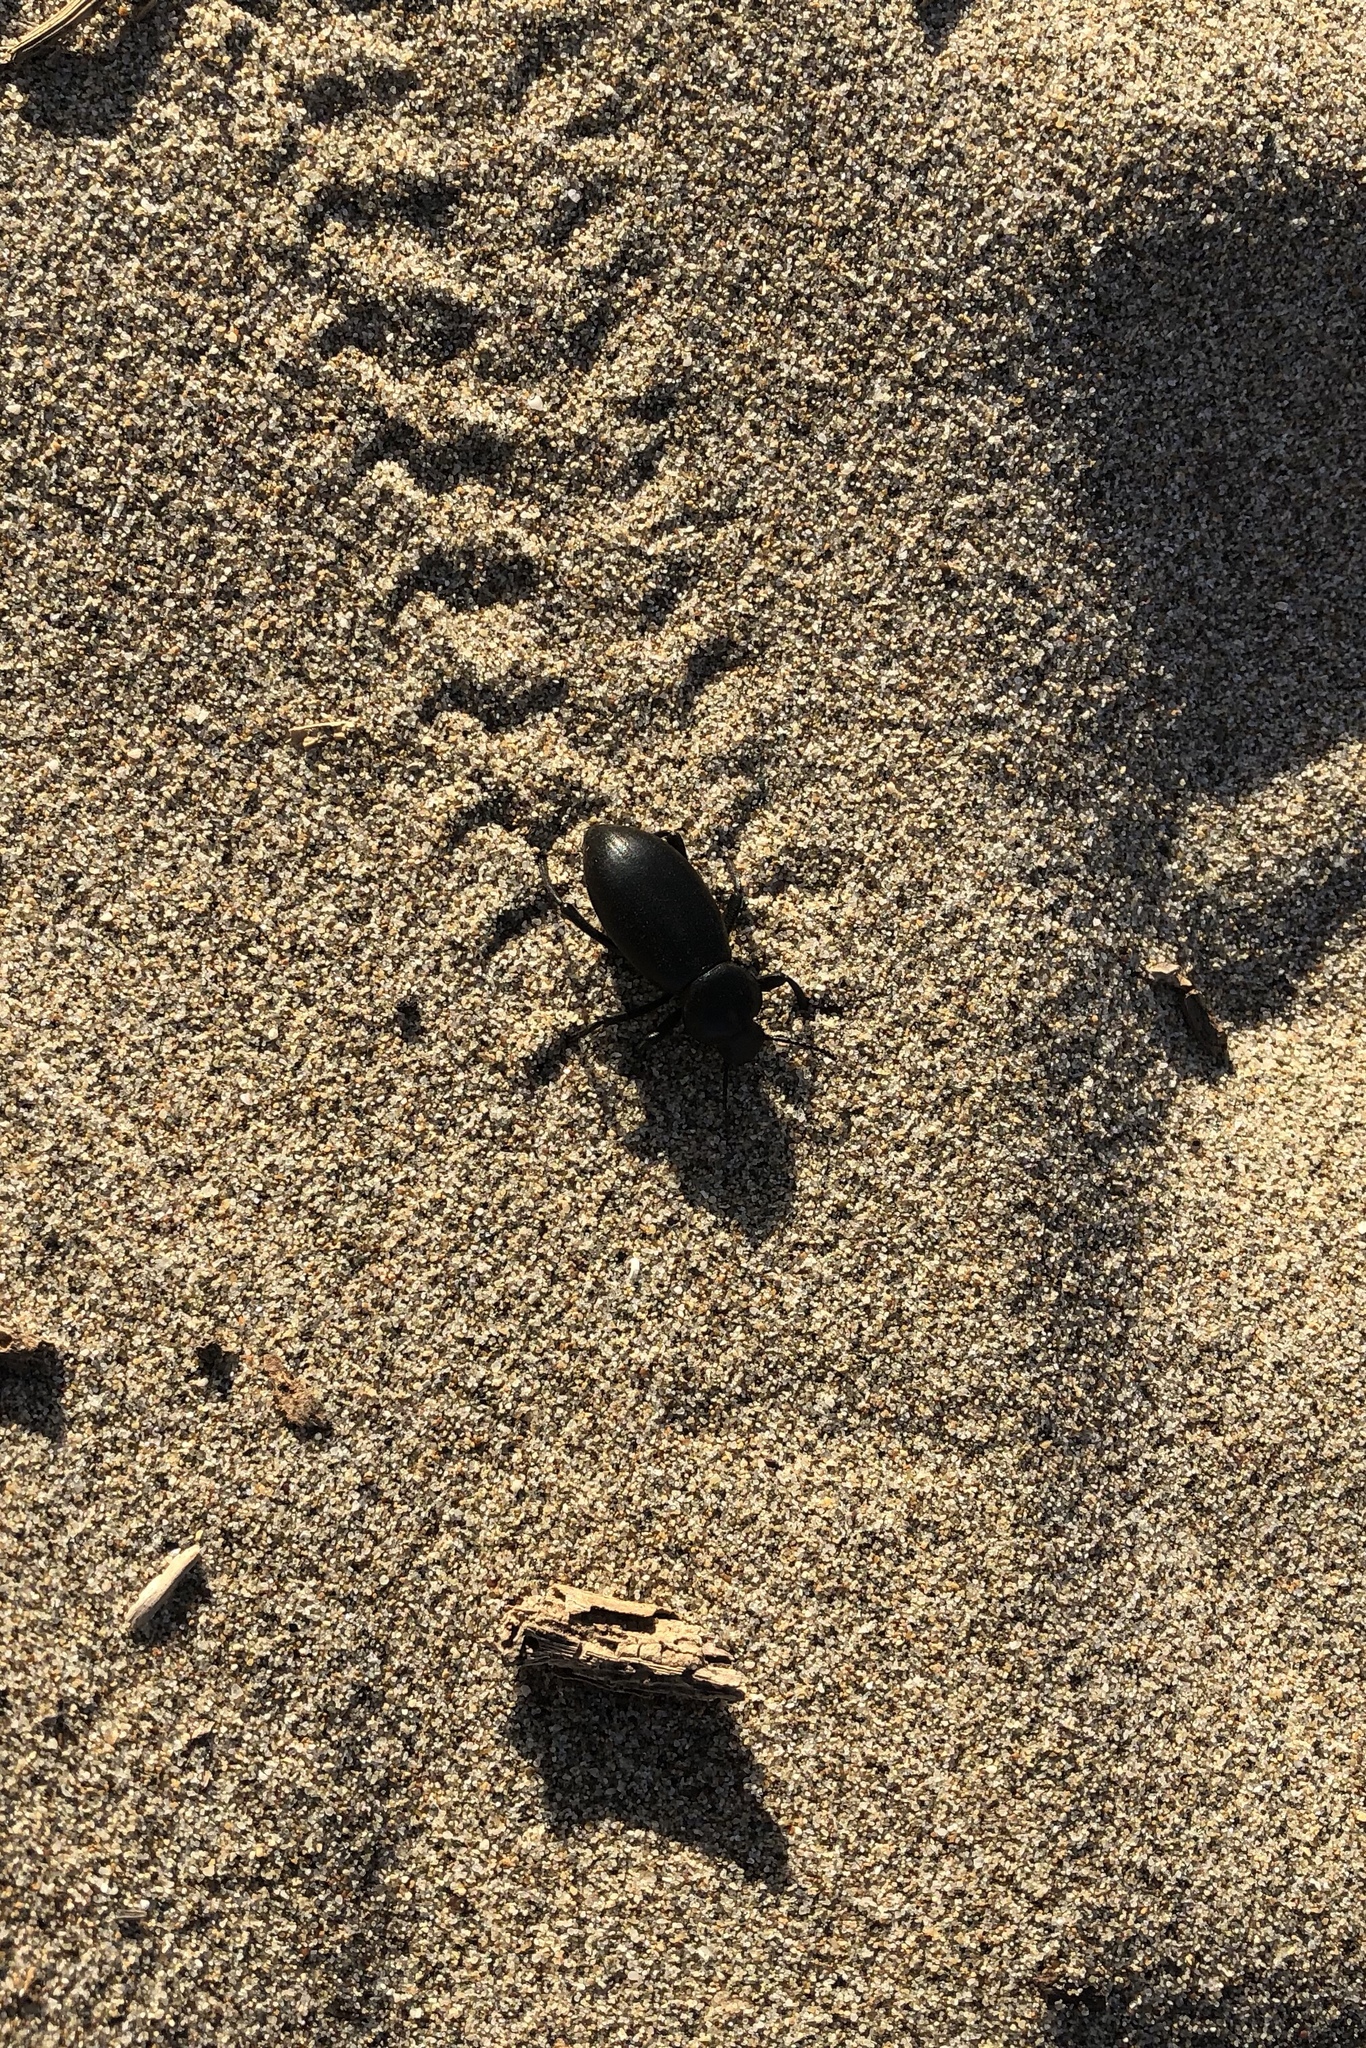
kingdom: Animalia
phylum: Arthropoda
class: Insecta
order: Coleoptera
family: Tenebrionidae
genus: Eleodes
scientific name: Eleodes dentipes
